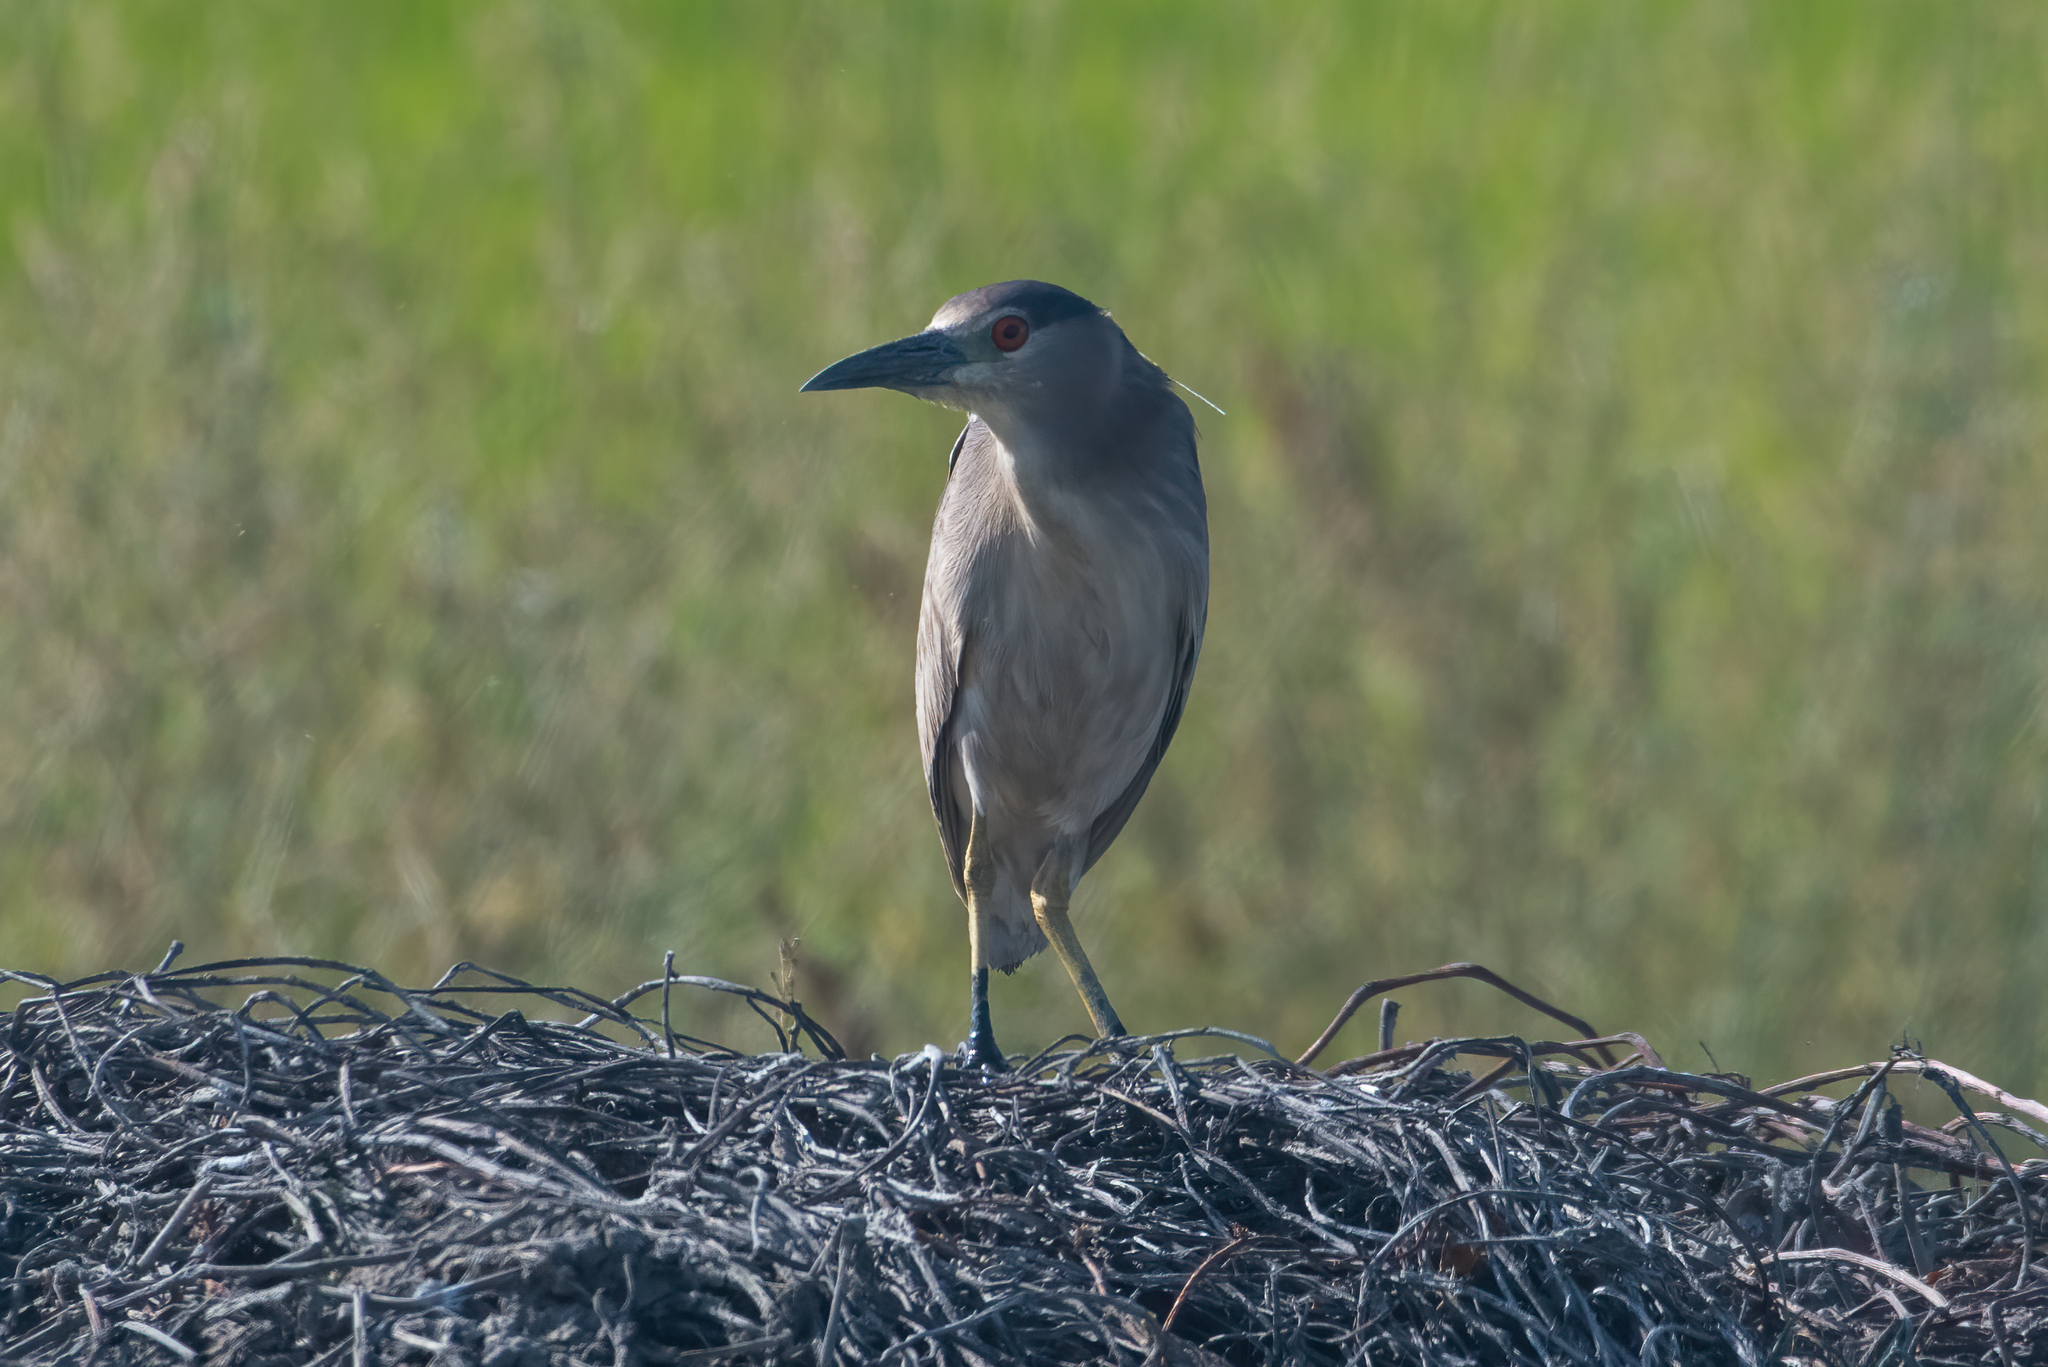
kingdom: Animalia
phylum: Chordata
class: Aves
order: Pelecaniformes
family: Ardeidae
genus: Nycticorax
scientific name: Nycticorax nycticorax
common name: Black-crowned night heron
